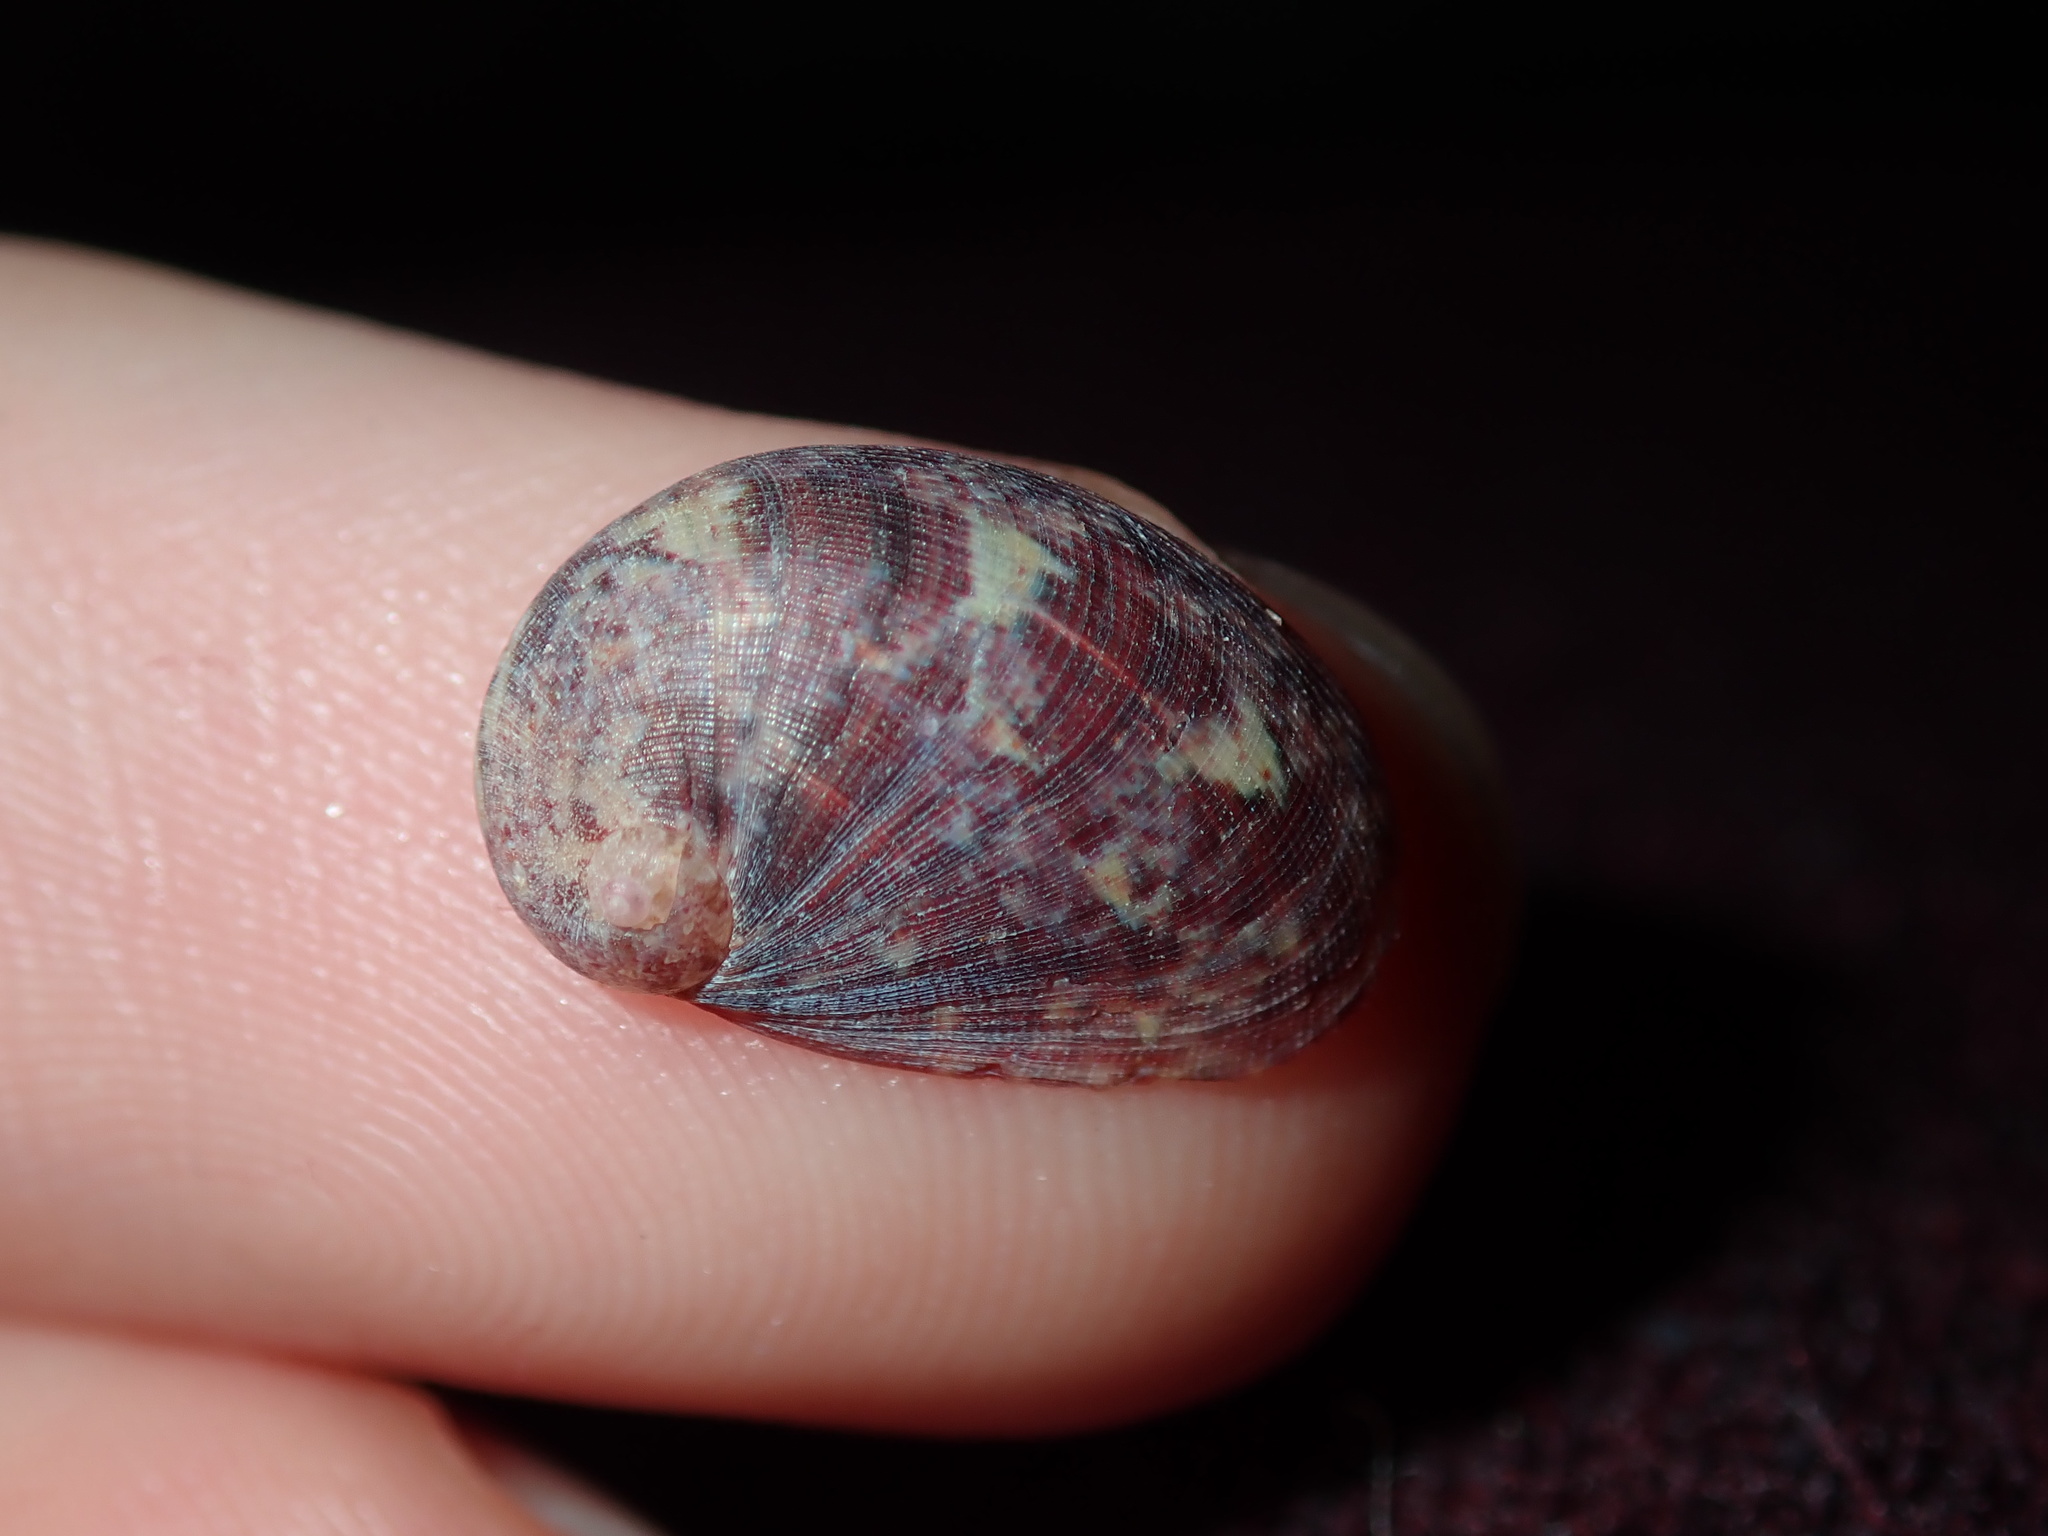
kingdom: Animalia
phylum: Mollusca
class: Gastropoda
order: Trochida
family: Trochidae
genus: Stomatella
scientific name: Stomatella impertusa
